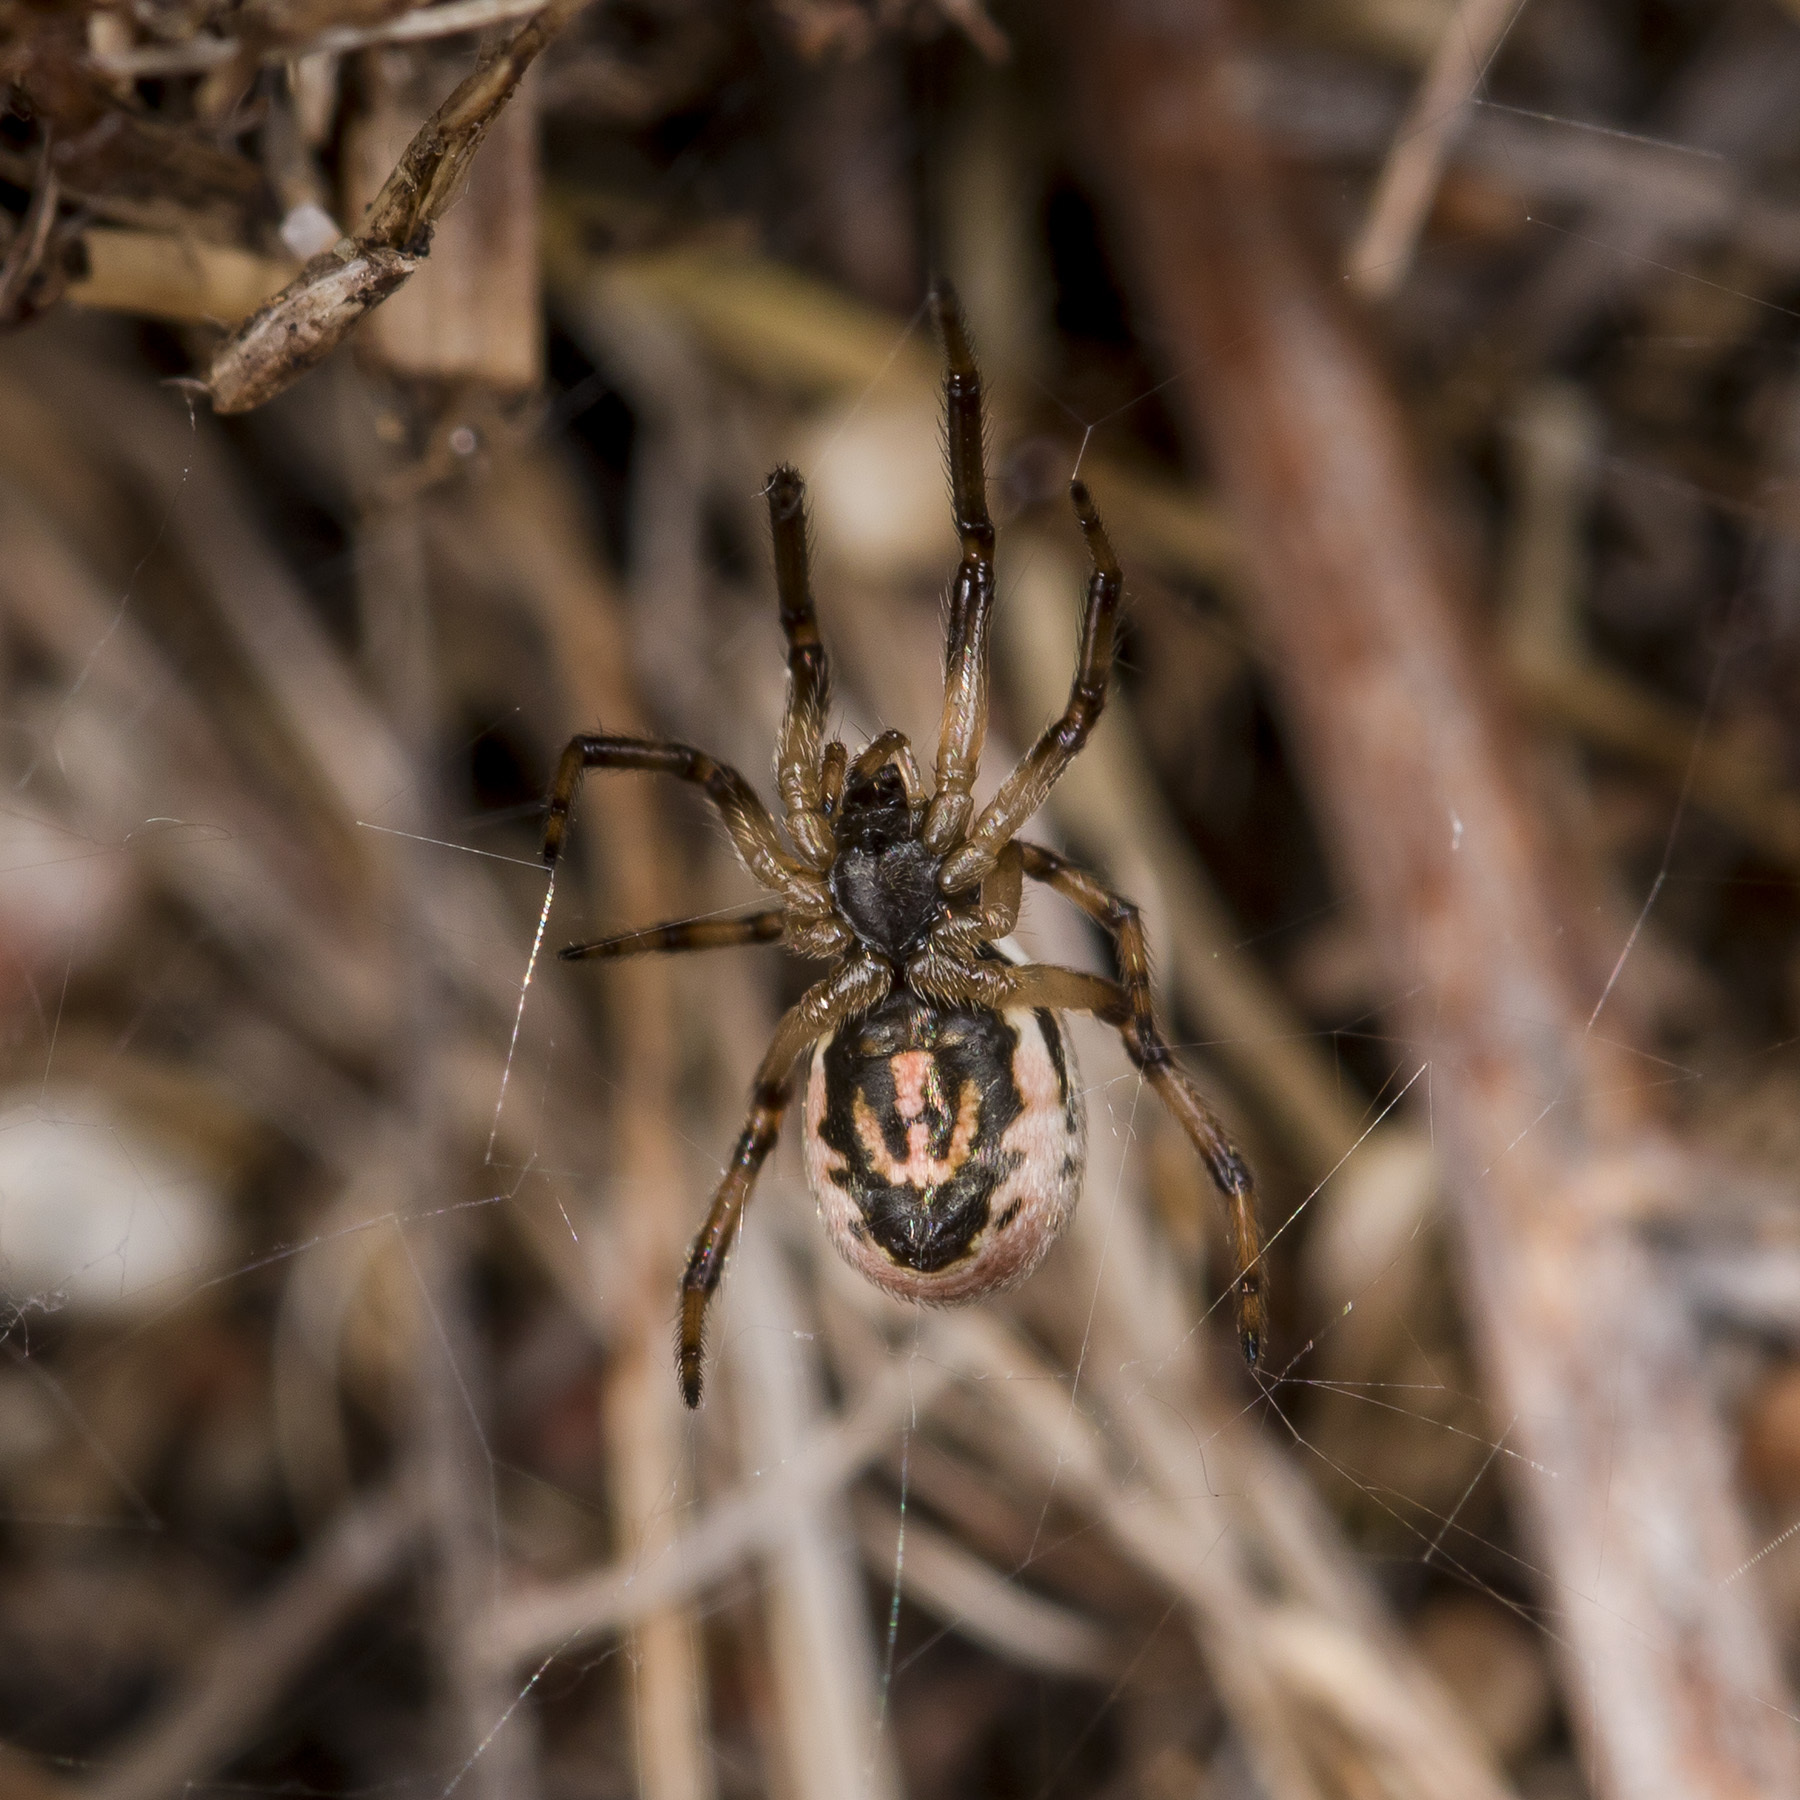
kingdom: Animalia
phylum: Arthropoda
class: Arachnida
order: Araneae
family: Theridiidae
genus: Steatoda
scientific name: Steatoda albomaculata
